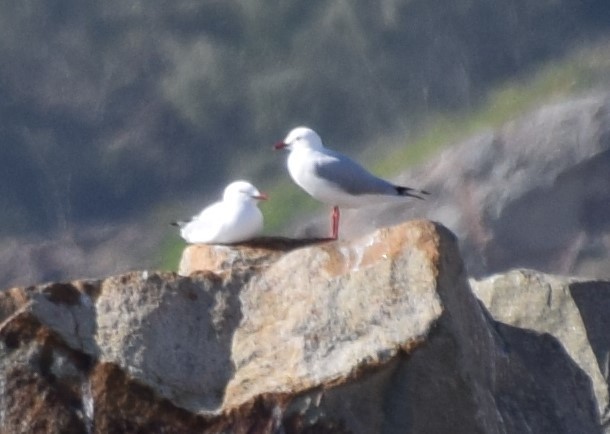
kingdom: Animalia
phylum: Chordata
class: Aves
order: Charadriiformes
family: Laridae
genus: Chroicocephalus
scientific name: Chroicocephalus novaehollandiae
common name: Silver gull
